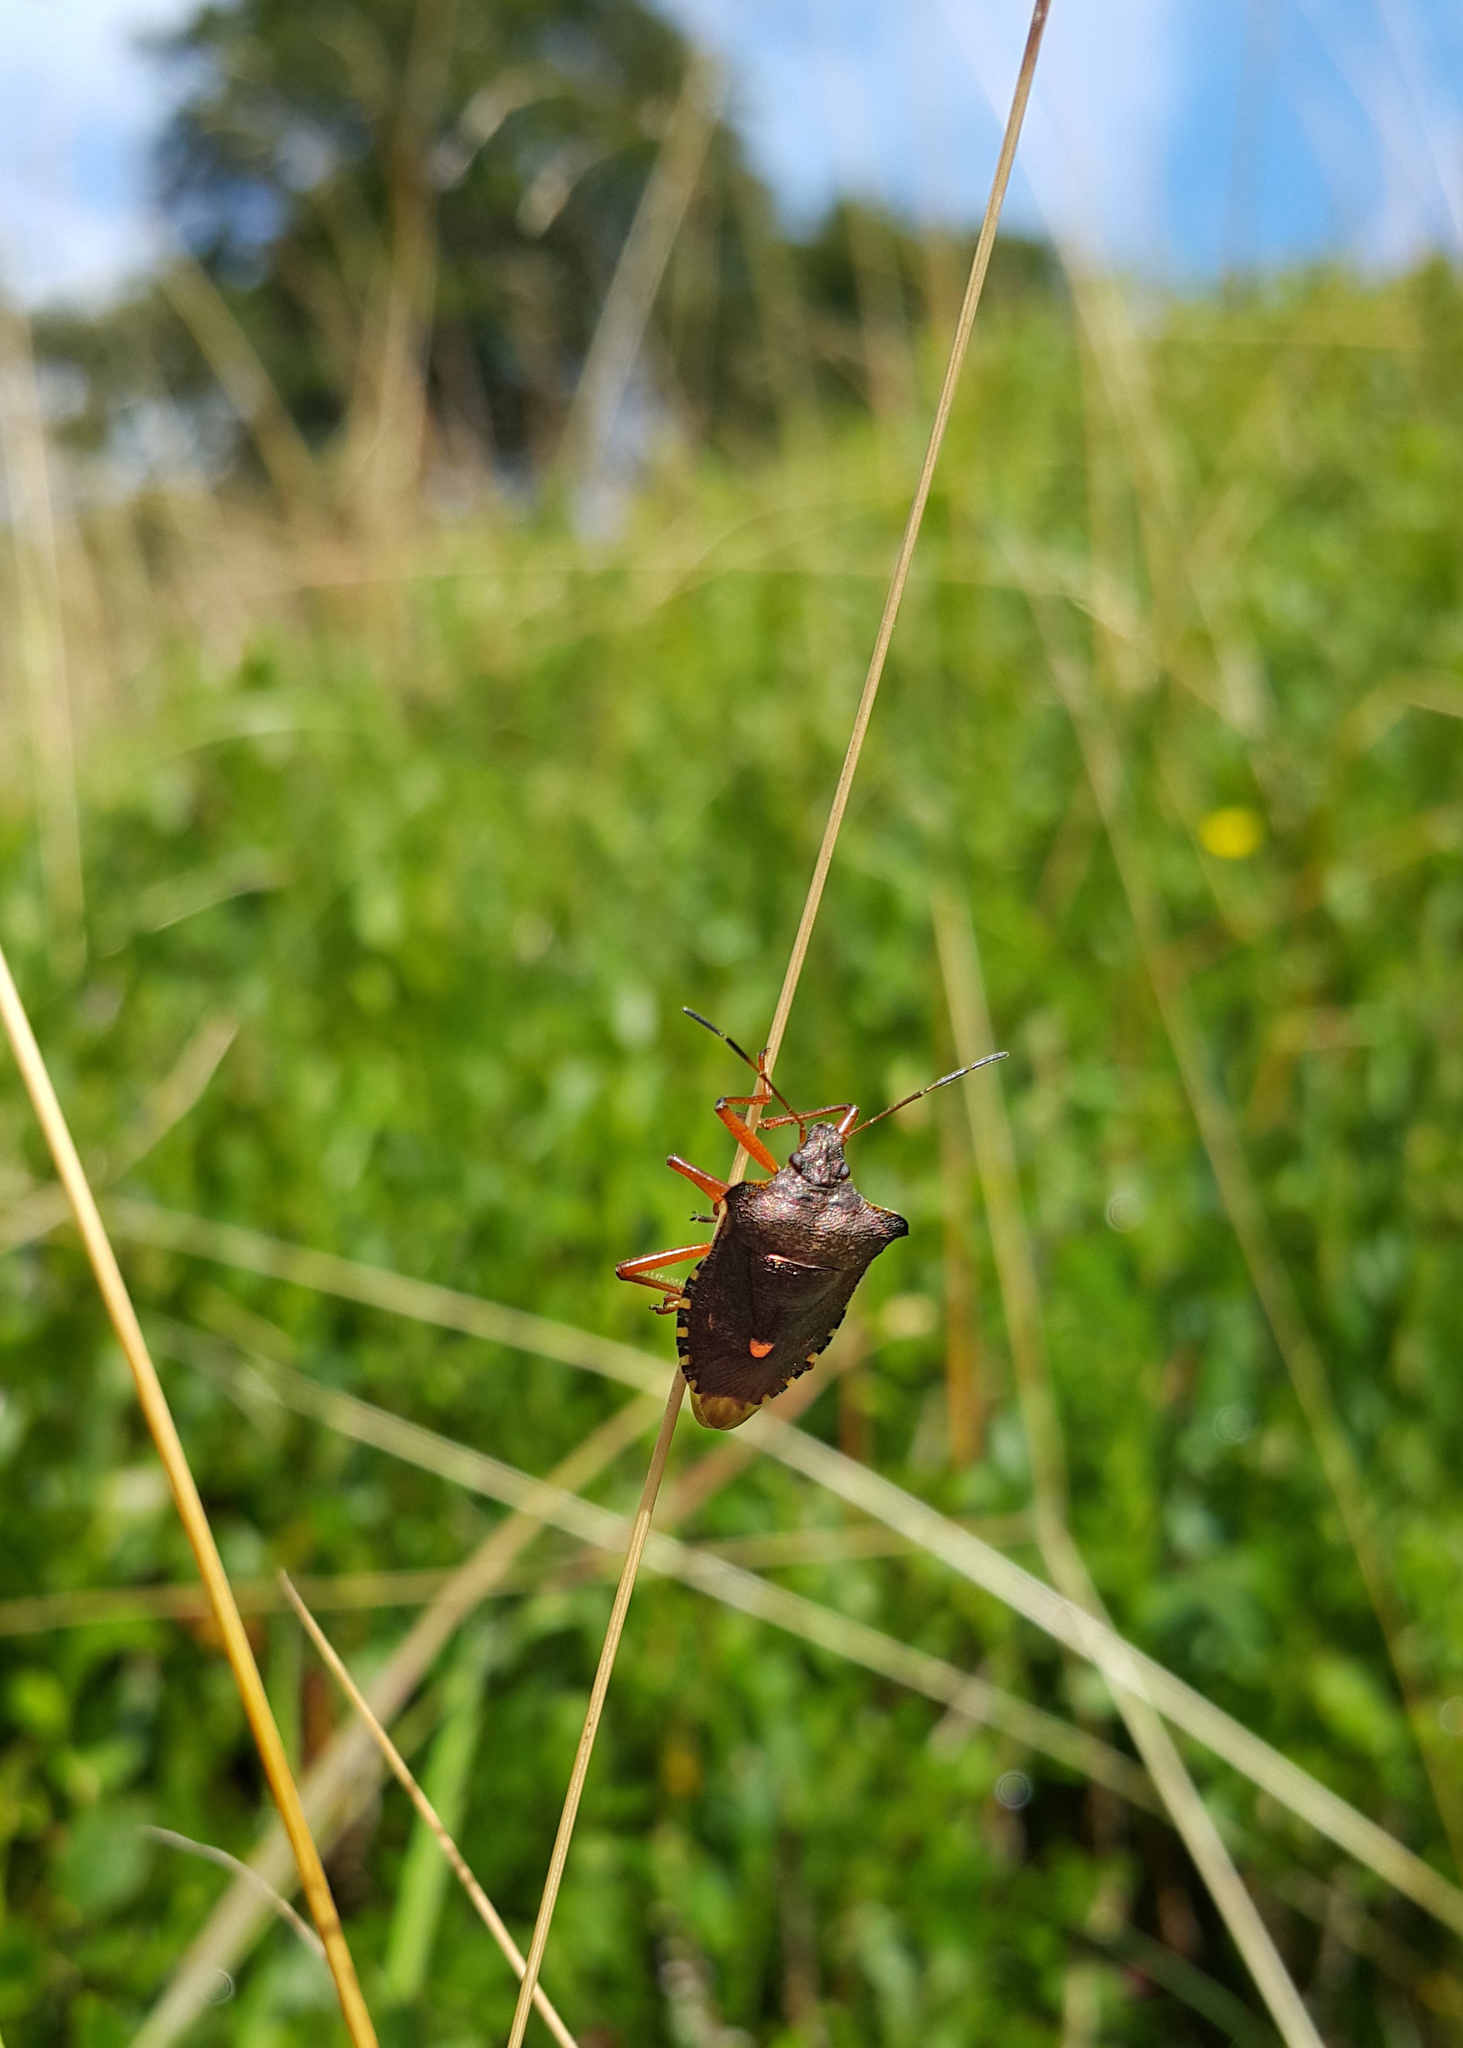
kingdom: Animalia
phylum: Arthropoda
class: Insecta
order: Hemiptera
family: Pentatomidae
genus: Pentatoma
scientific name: Pentatoma rufipes
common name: Forest bug
